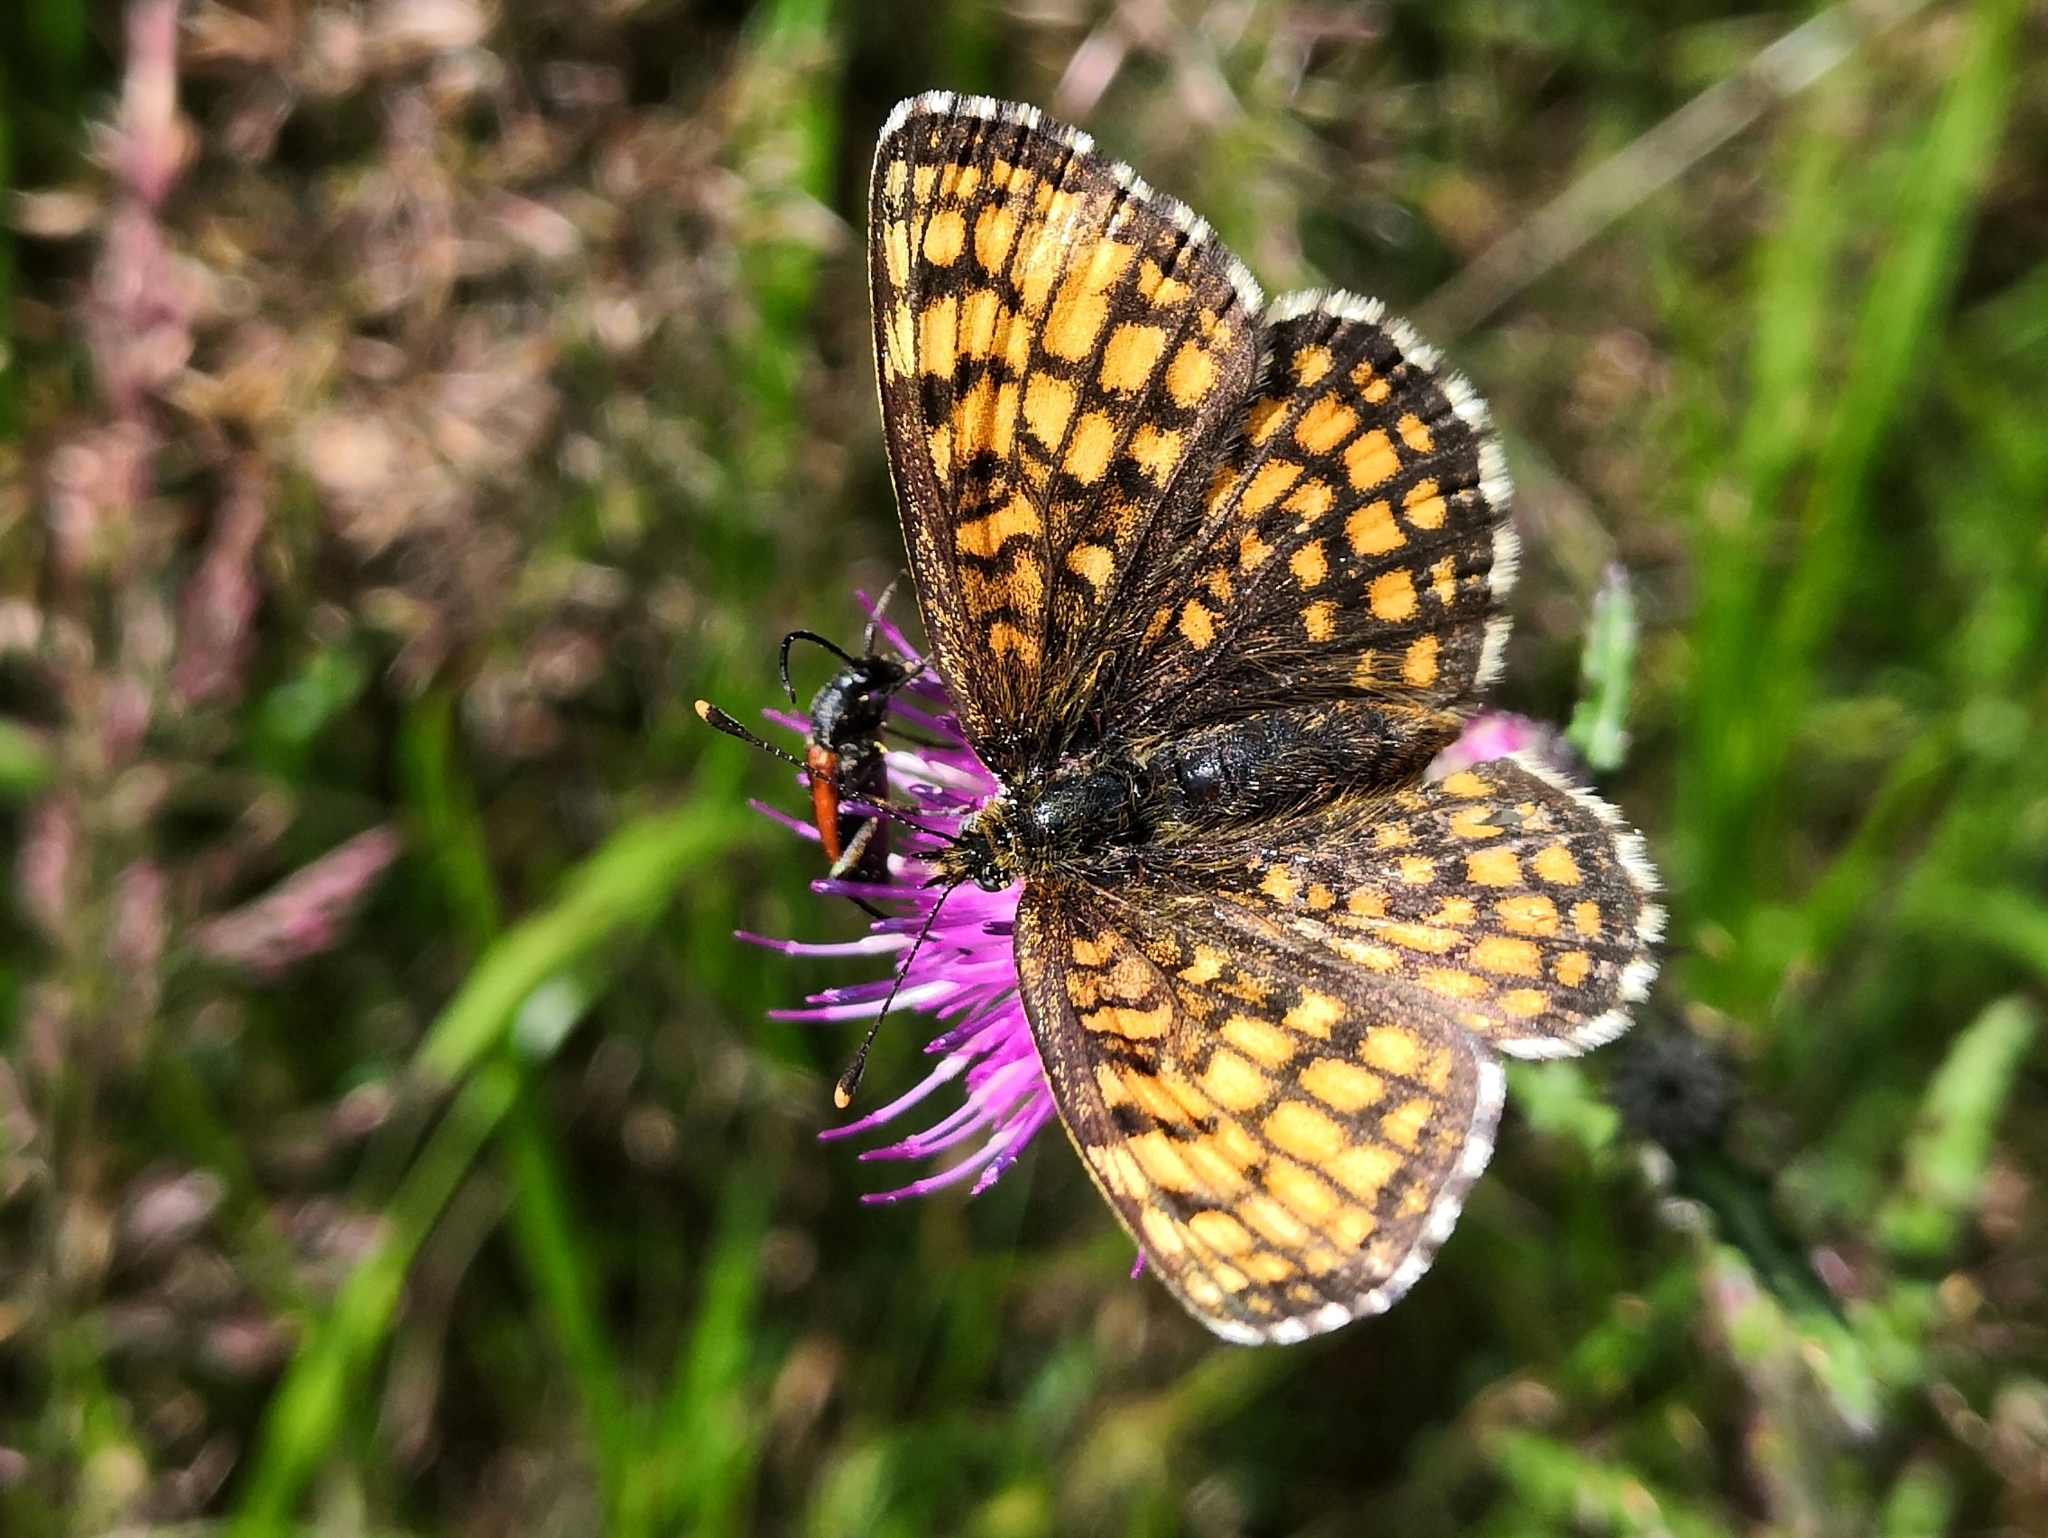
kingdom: Animalia
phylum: Arthropoda
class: Insecta
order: Lepidoptera
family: Nymphalidae
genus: Melitaea
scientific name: Melitaea athalia
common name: Heath fritillary
